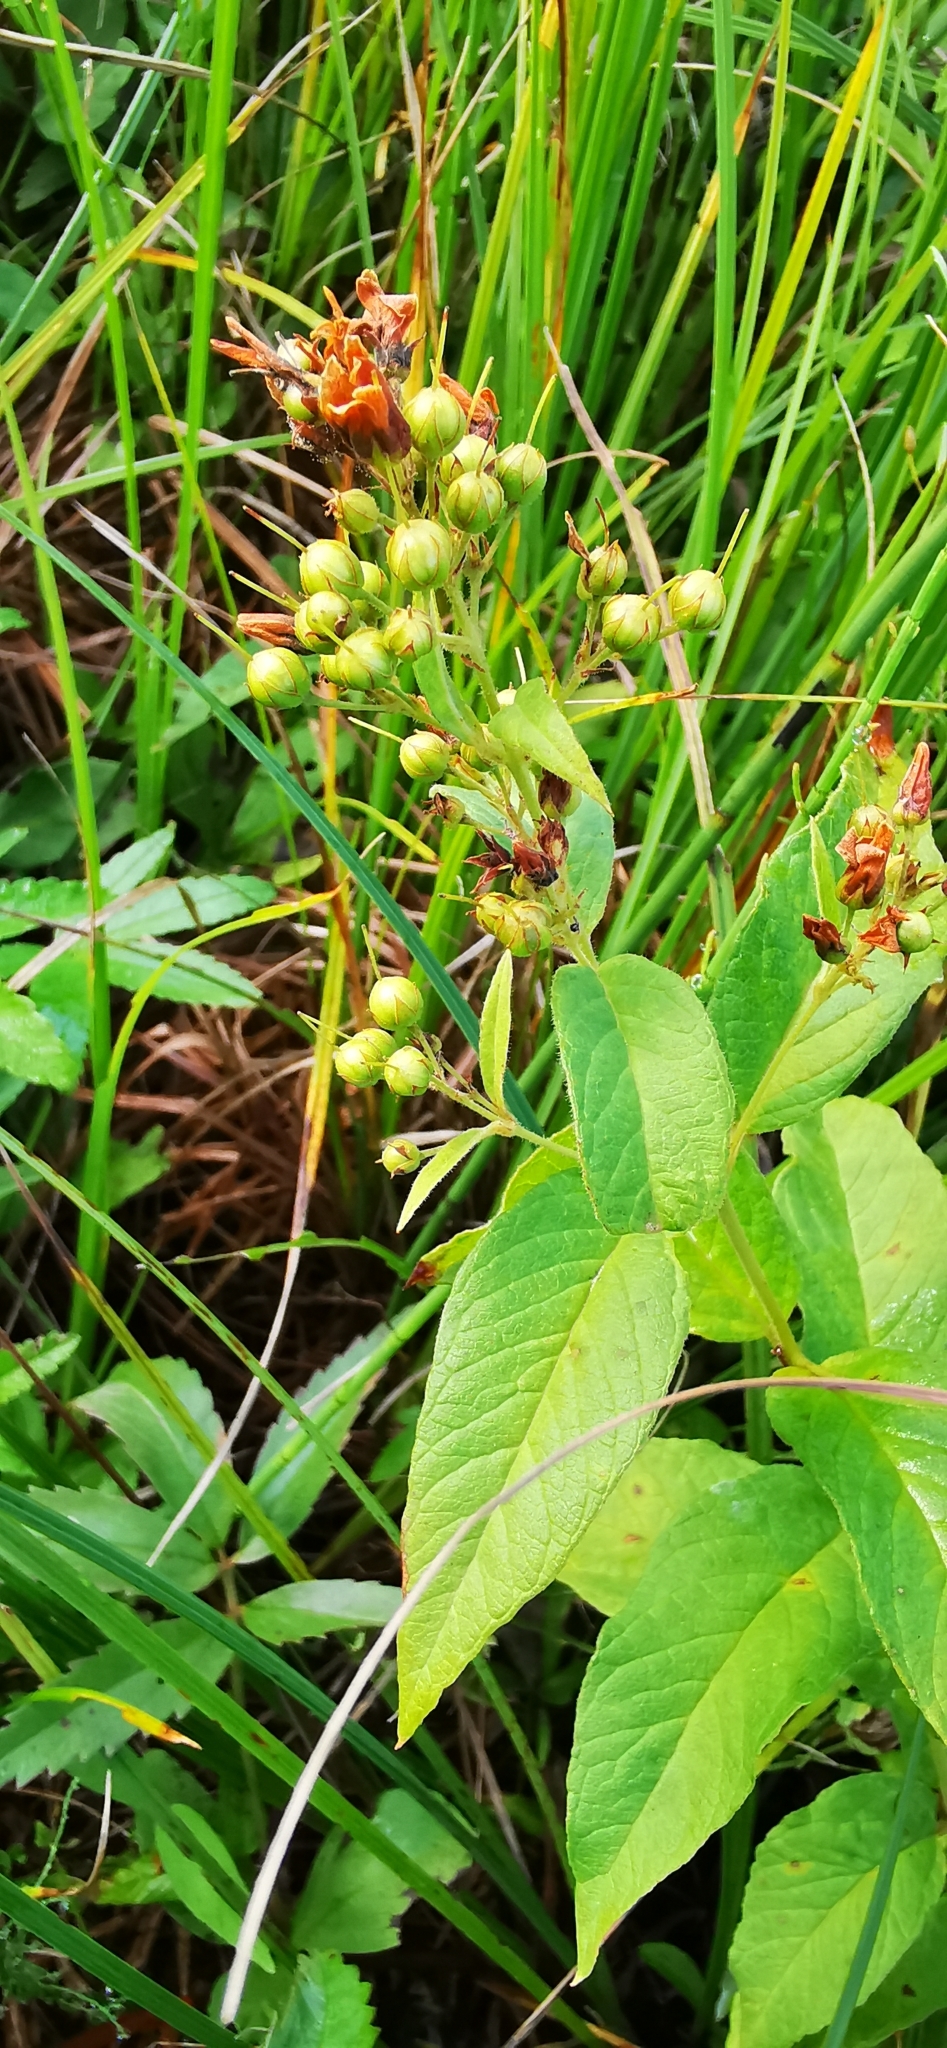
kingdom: Plantae
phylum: Tracheophyta
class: Magnoliopsida
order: Ericales
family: Primulaceae
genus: Lysimachia
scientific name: Lysimachia vulgaris
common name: Yellow loosestrife
